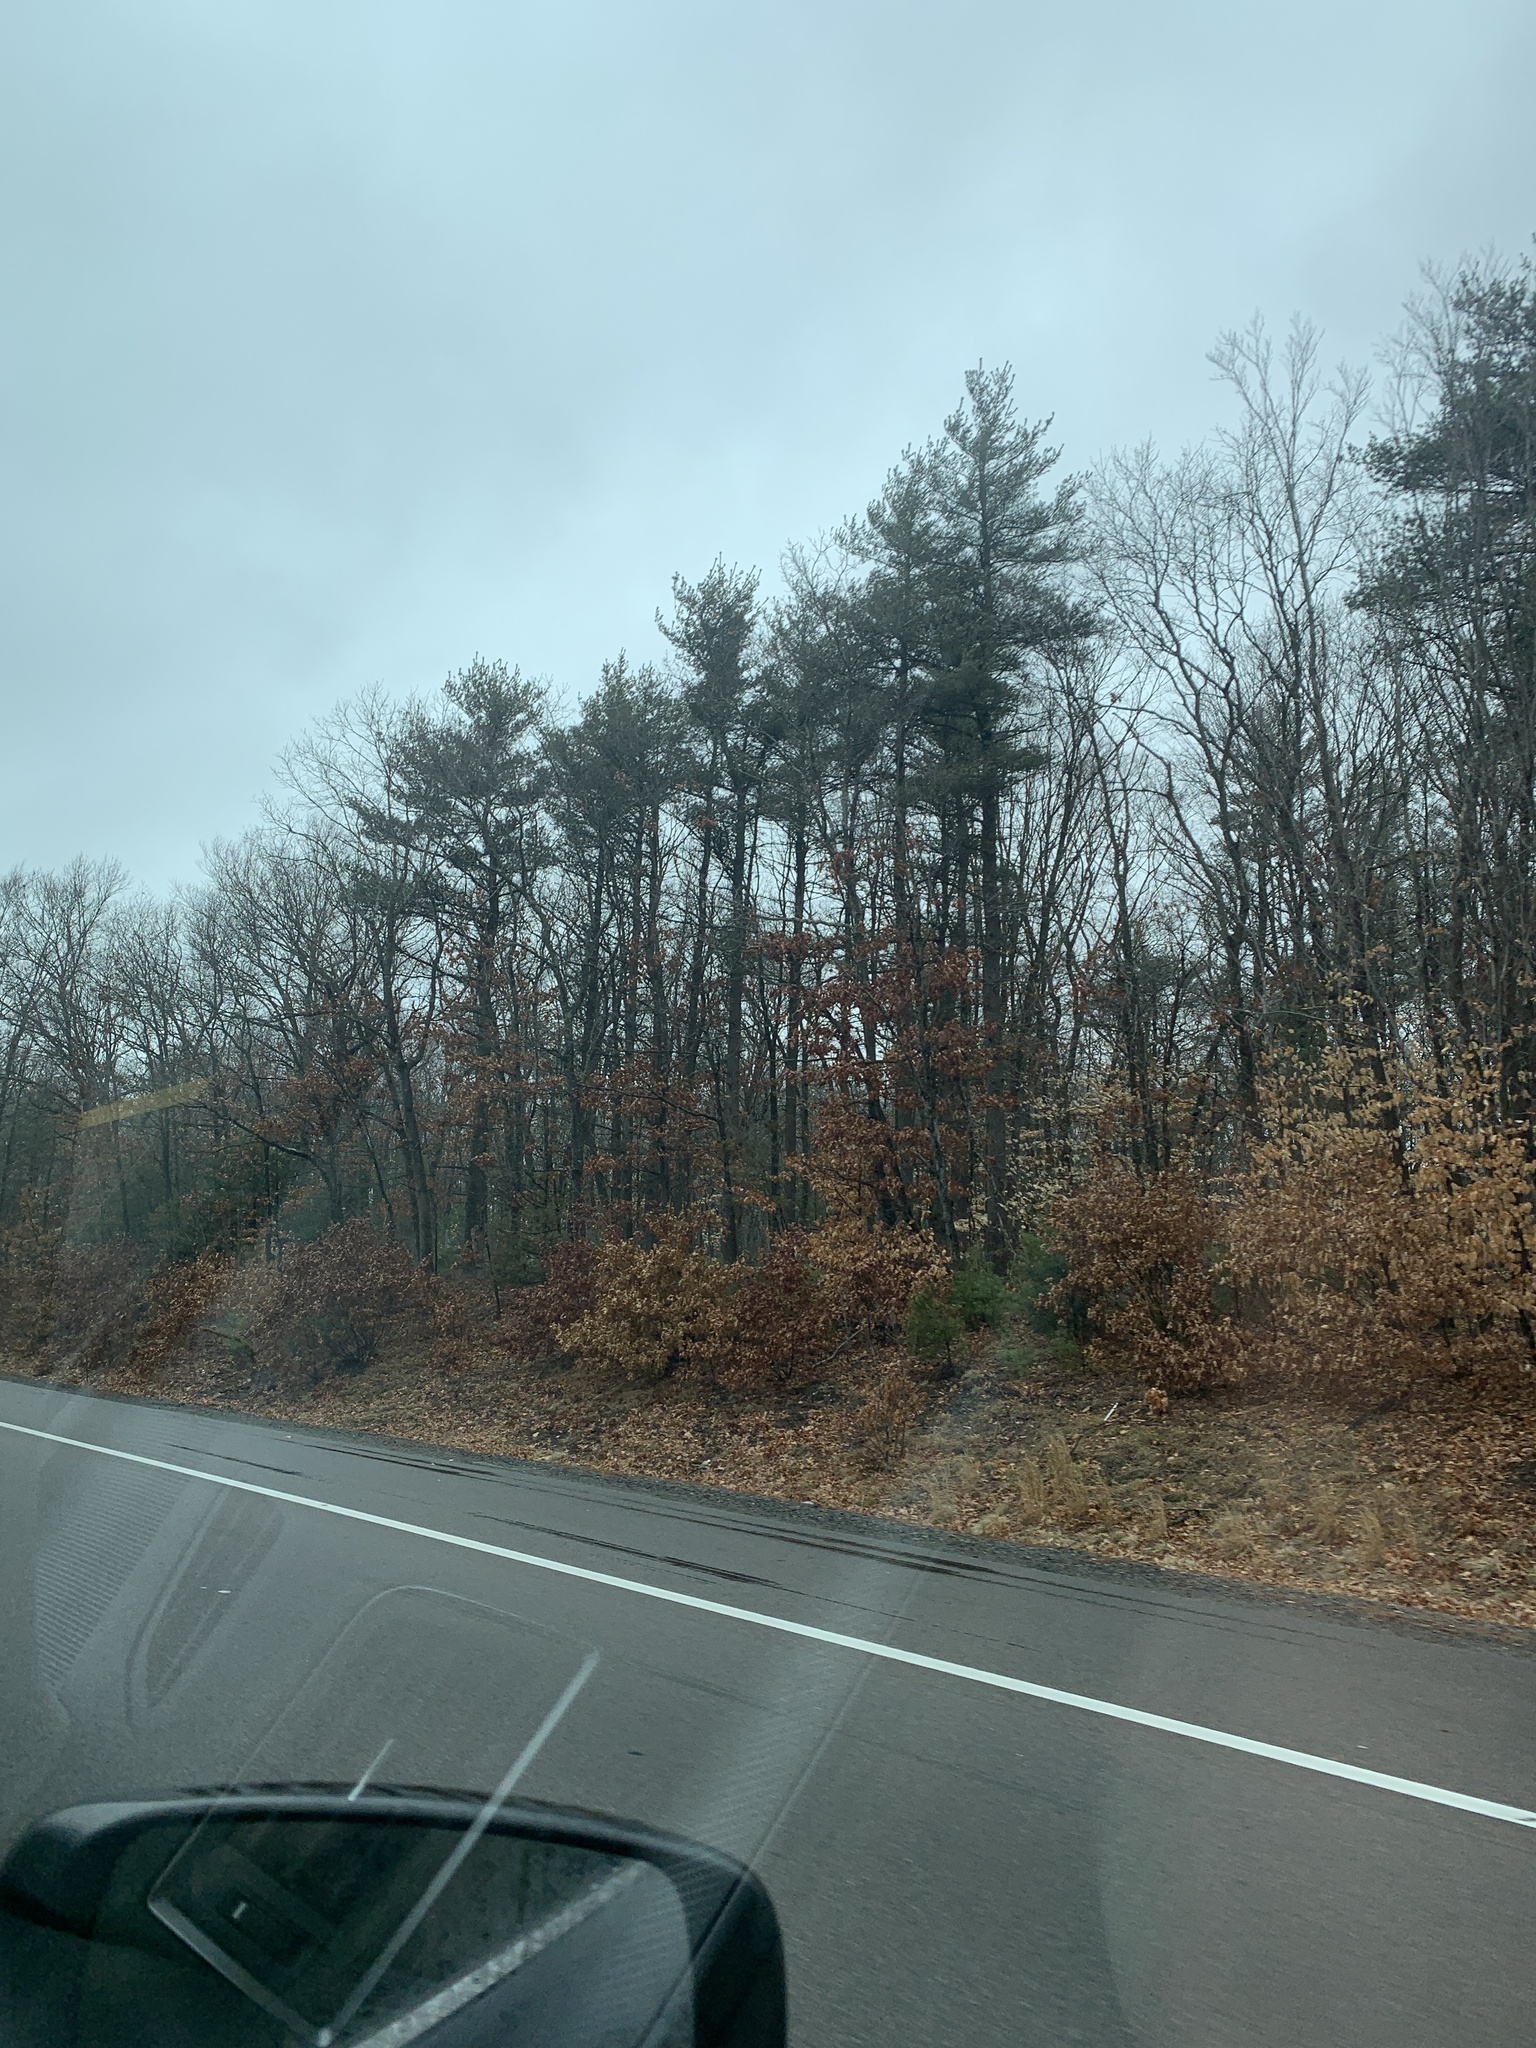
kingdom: Plantae
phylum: Tracheophyta
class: Pinopsida
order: Pinales
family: Pinaceae
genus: Pinus
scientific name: Pinus strobus
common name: Weymouth pine
